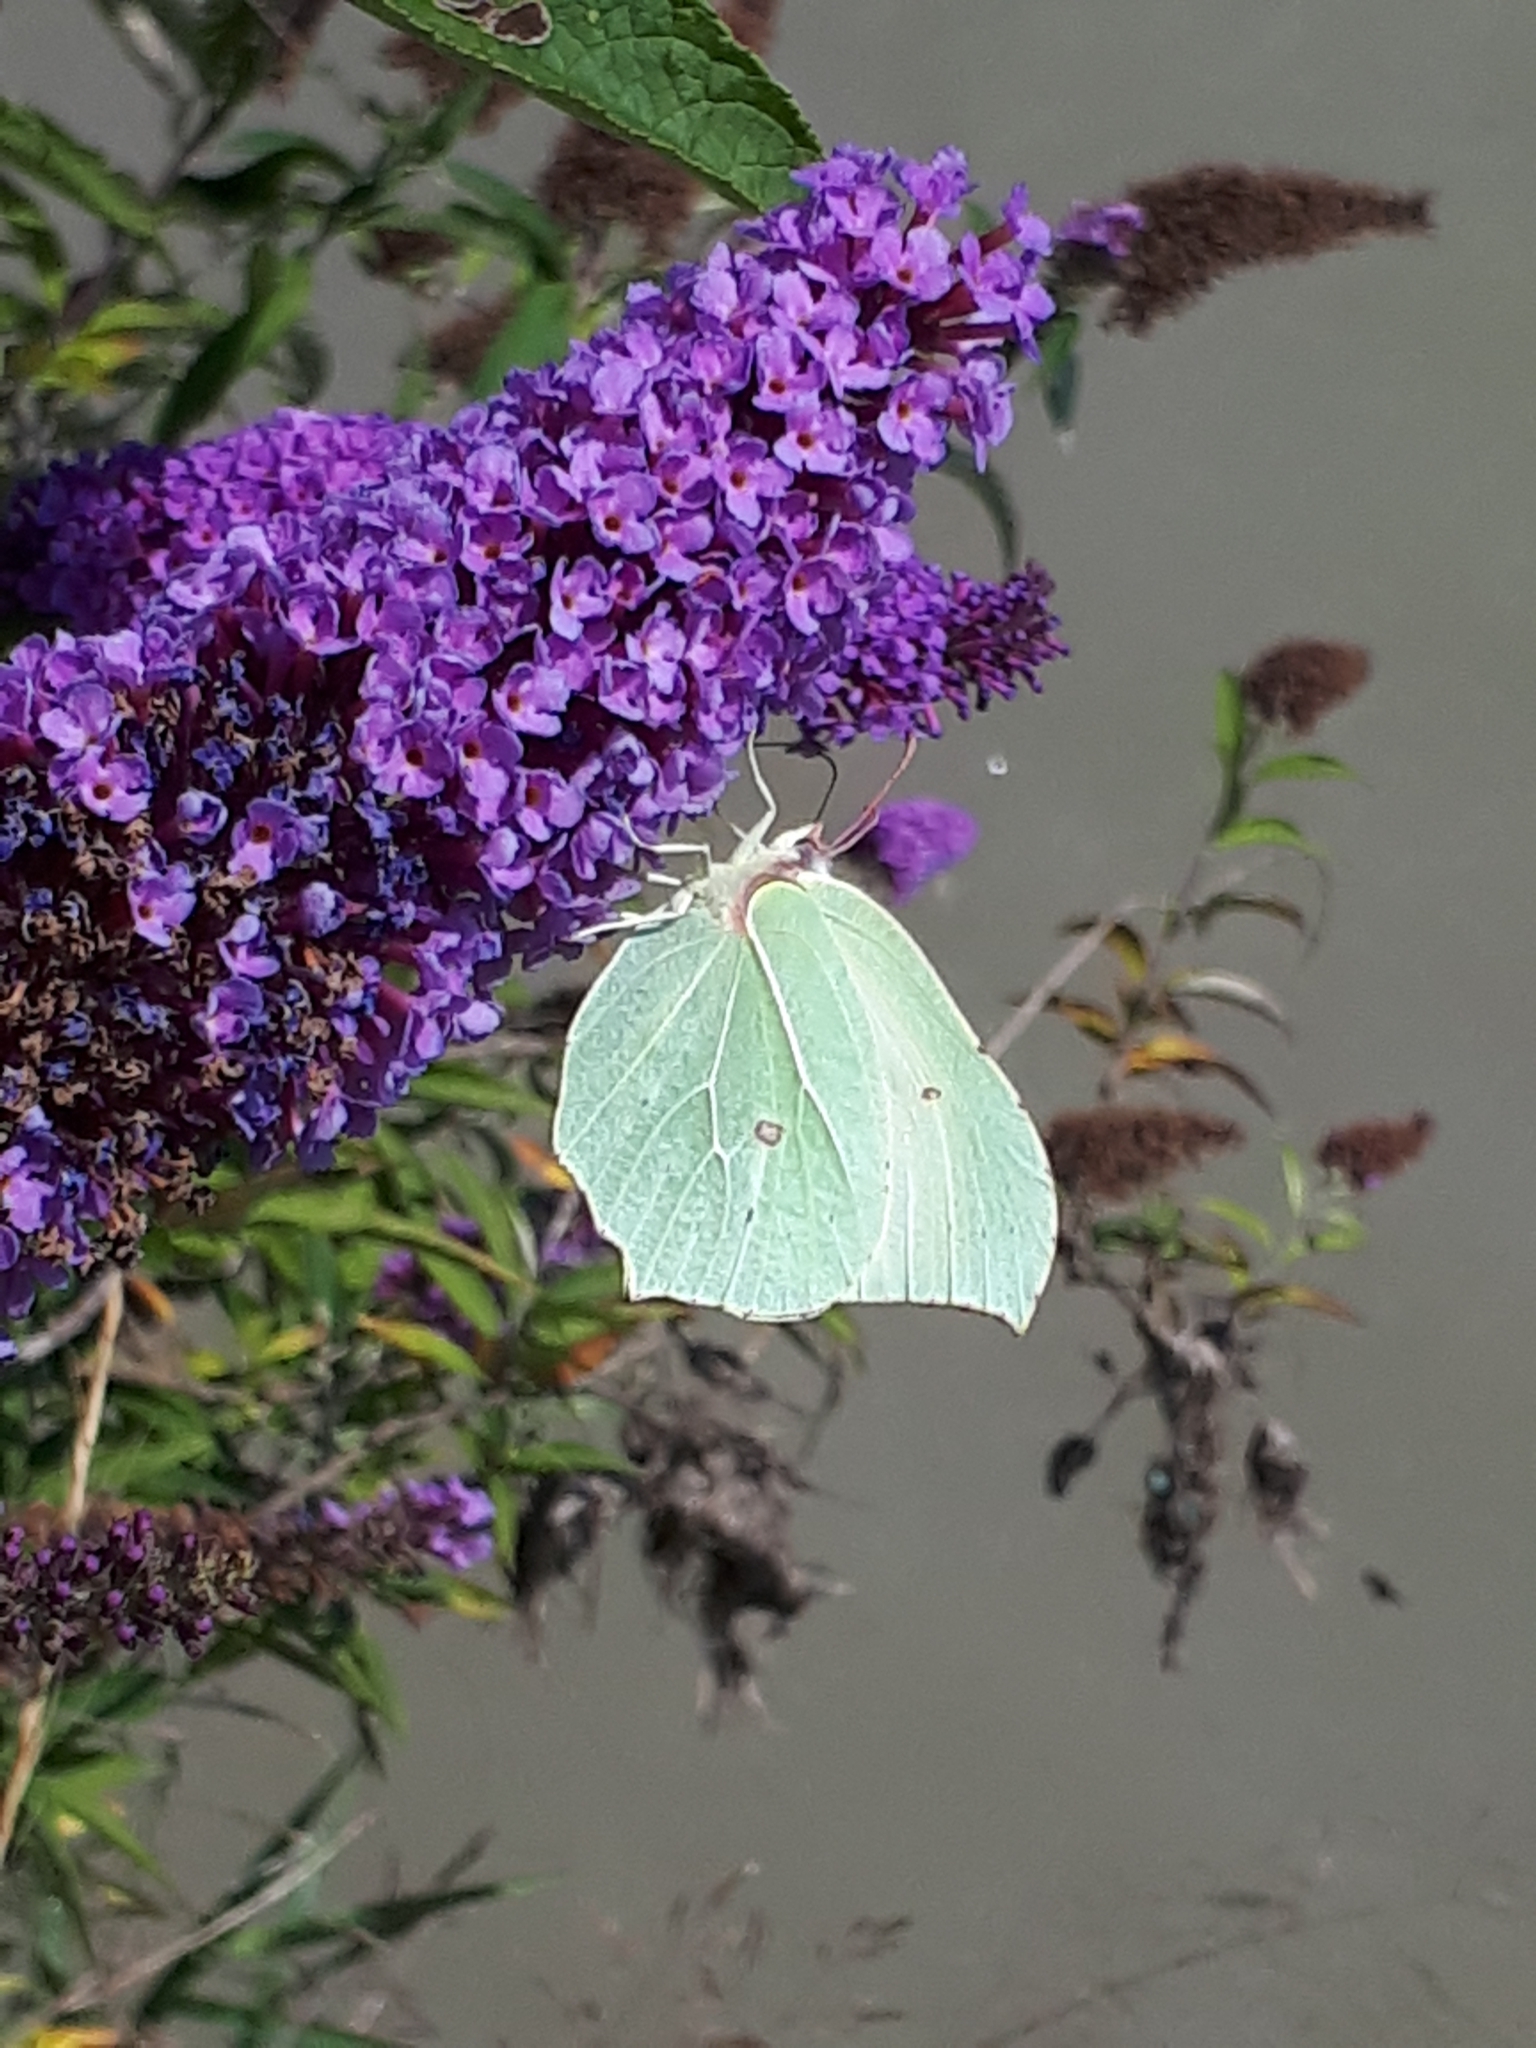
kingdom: Animalia
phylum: Arthropoda
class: Insecta
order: Lepidoptera
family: Pieridae
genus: Gonepteryx
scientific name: Gonepteryx rhamni
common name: Brimstone
